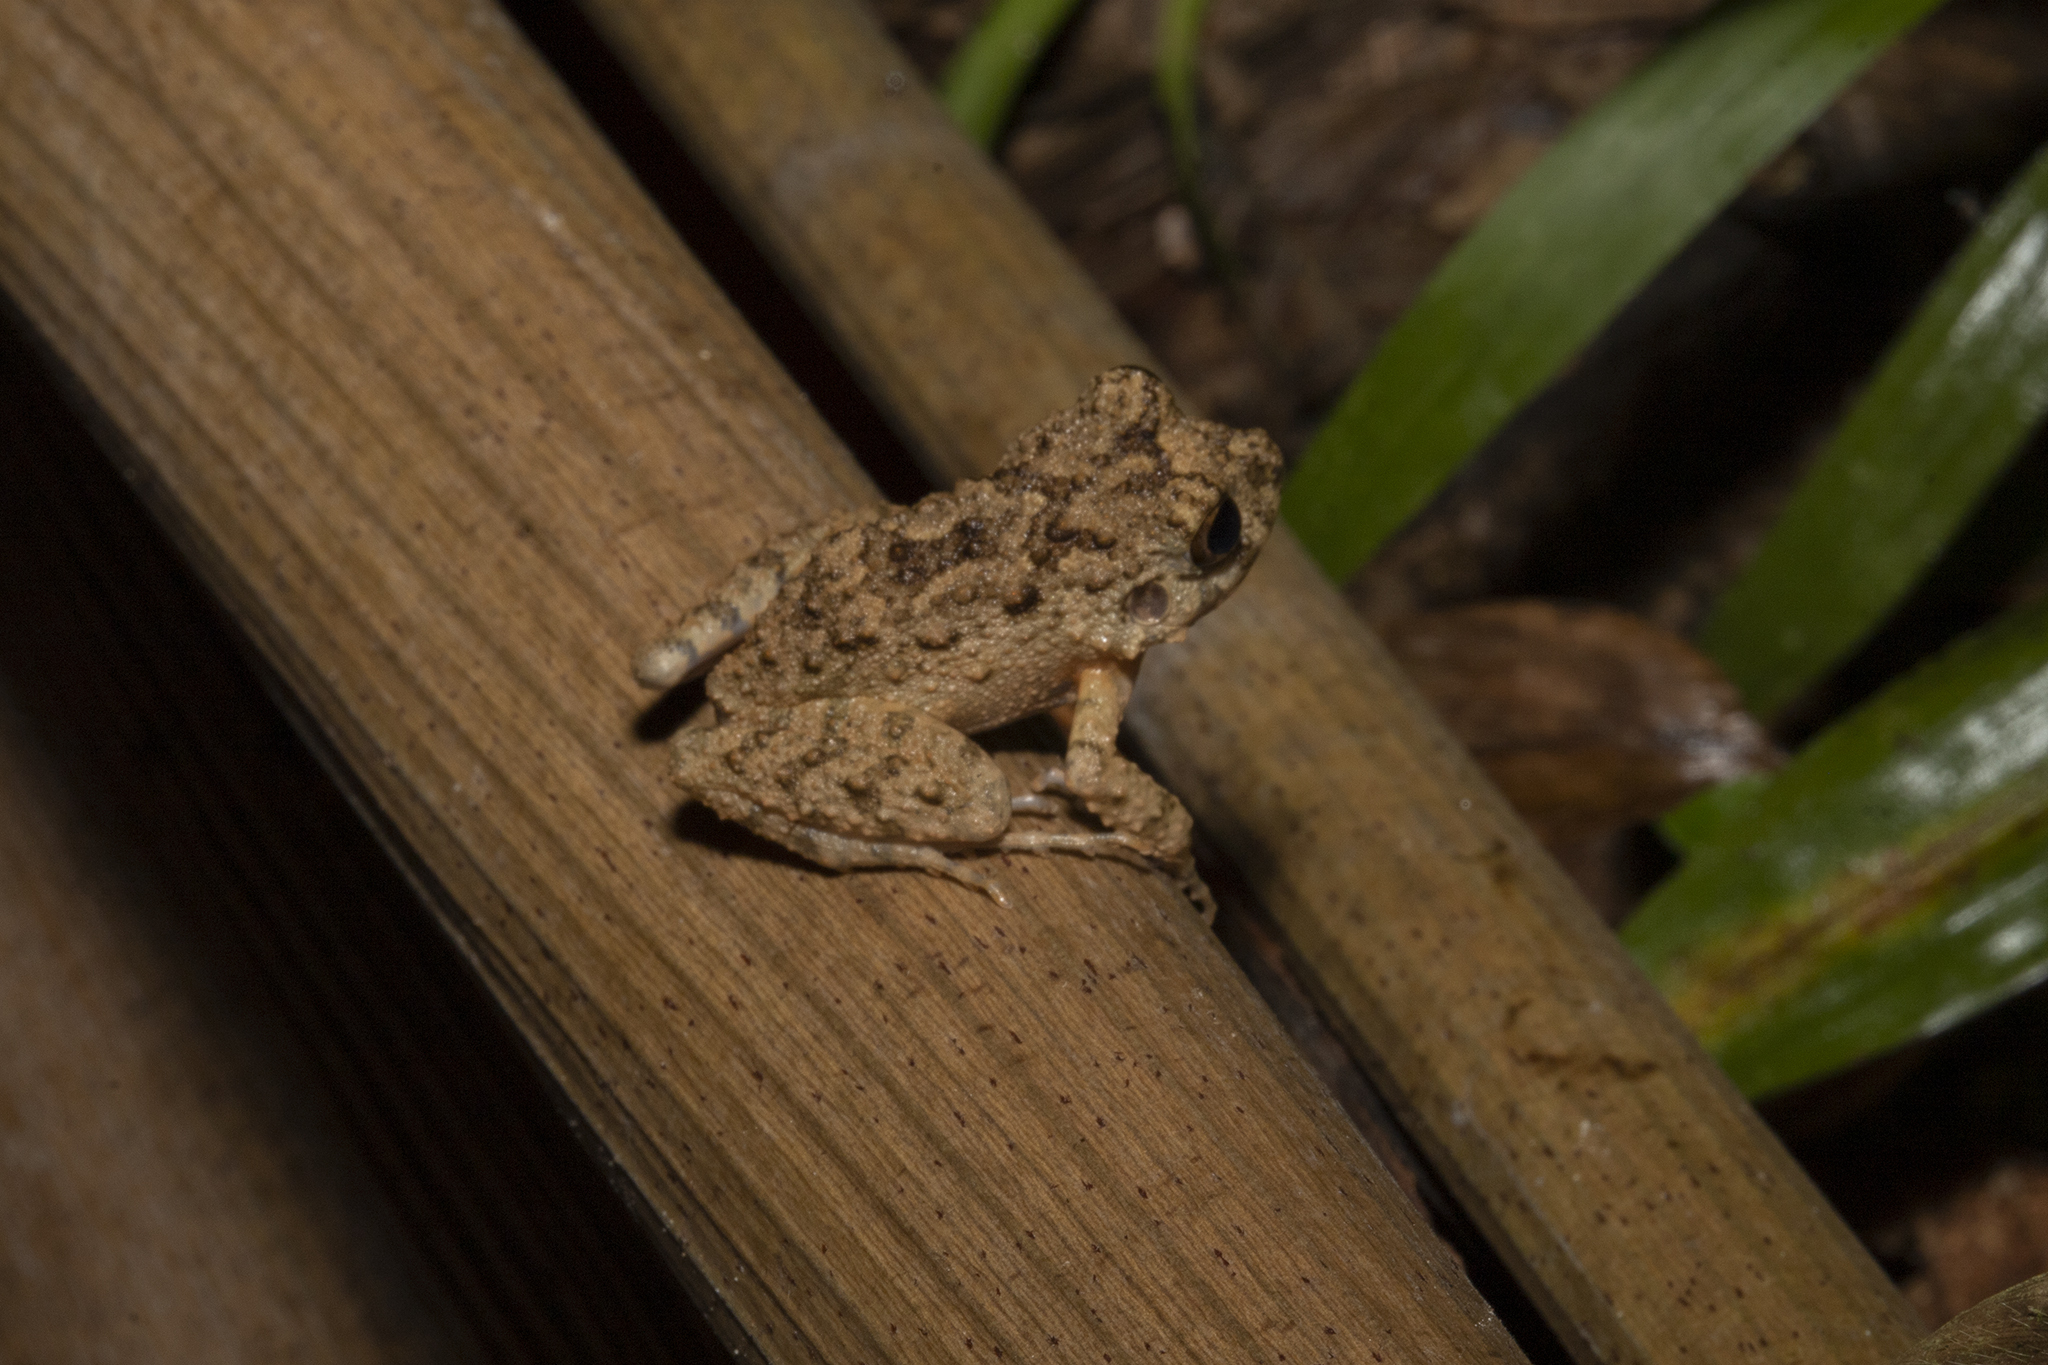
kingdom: Animalia
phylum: Chordata
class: Amphibia
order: Anura
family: Craugastoridae
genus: Oreobates
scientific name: Oreobates quixensis
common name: Common big-headed frog
